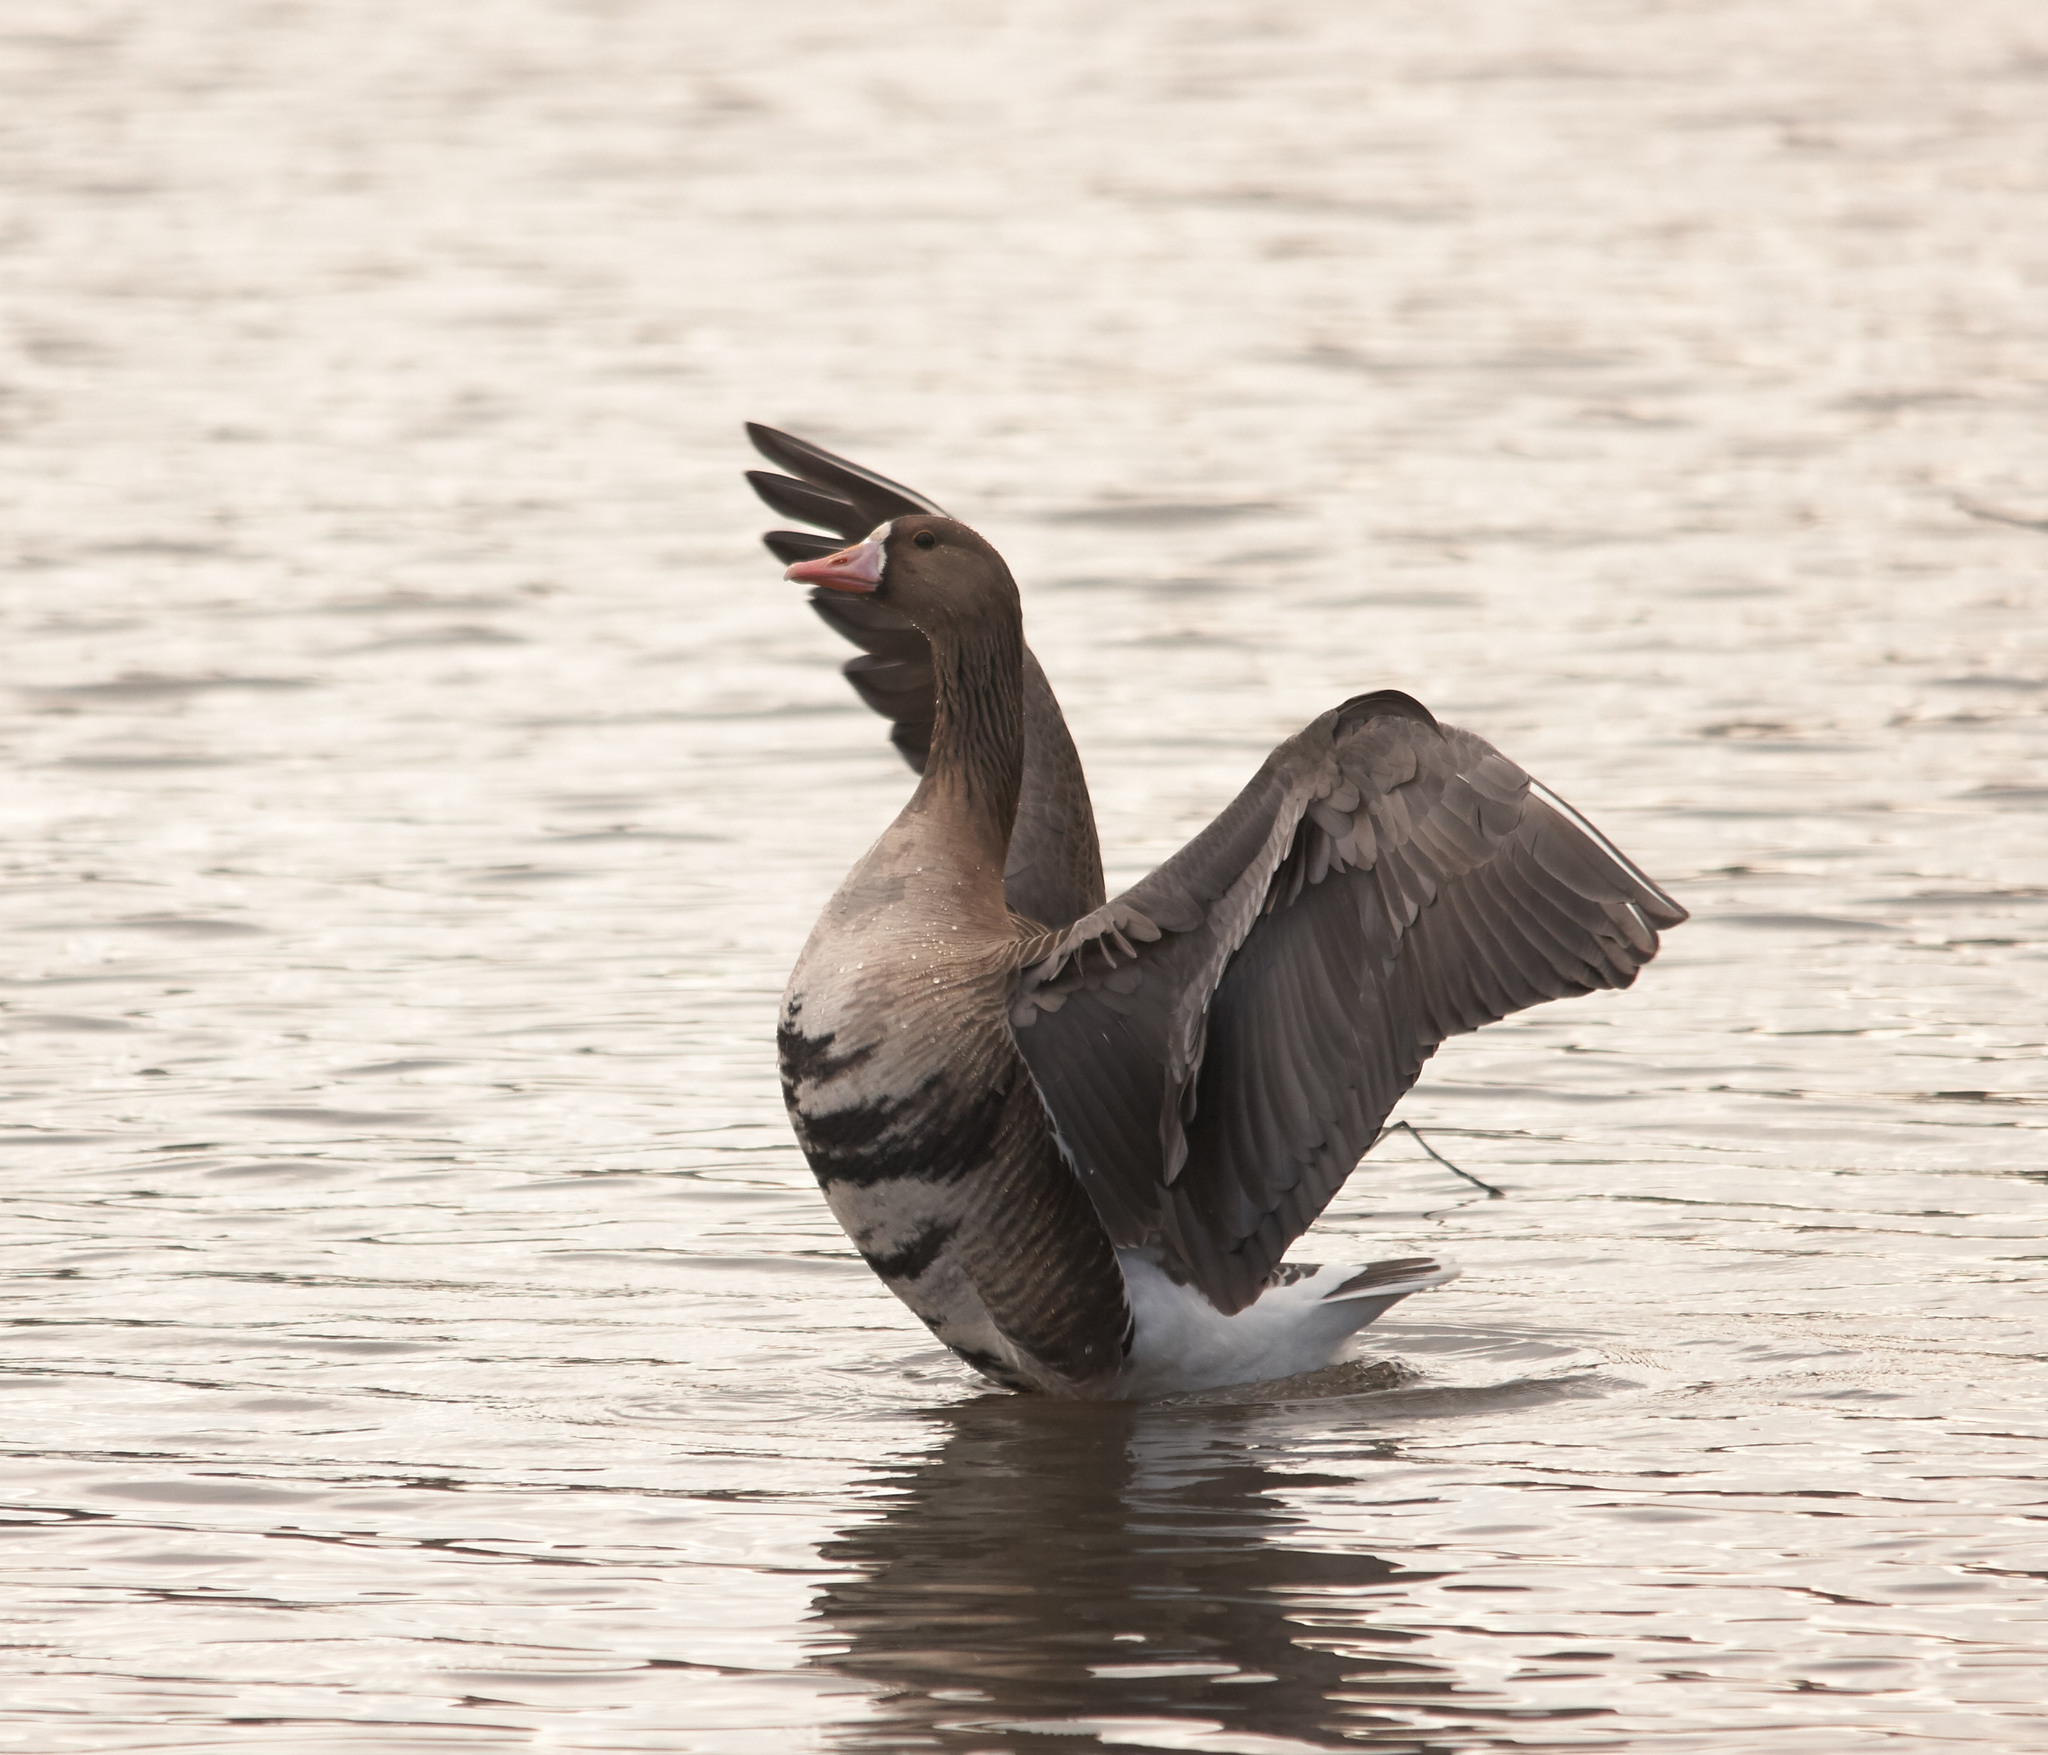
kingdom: Animalia
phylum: Chordata
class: Aves
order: Anseriformes
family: Anatidae
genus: Anser
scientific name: Anser albifrons
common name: Greater white-fronted goose
